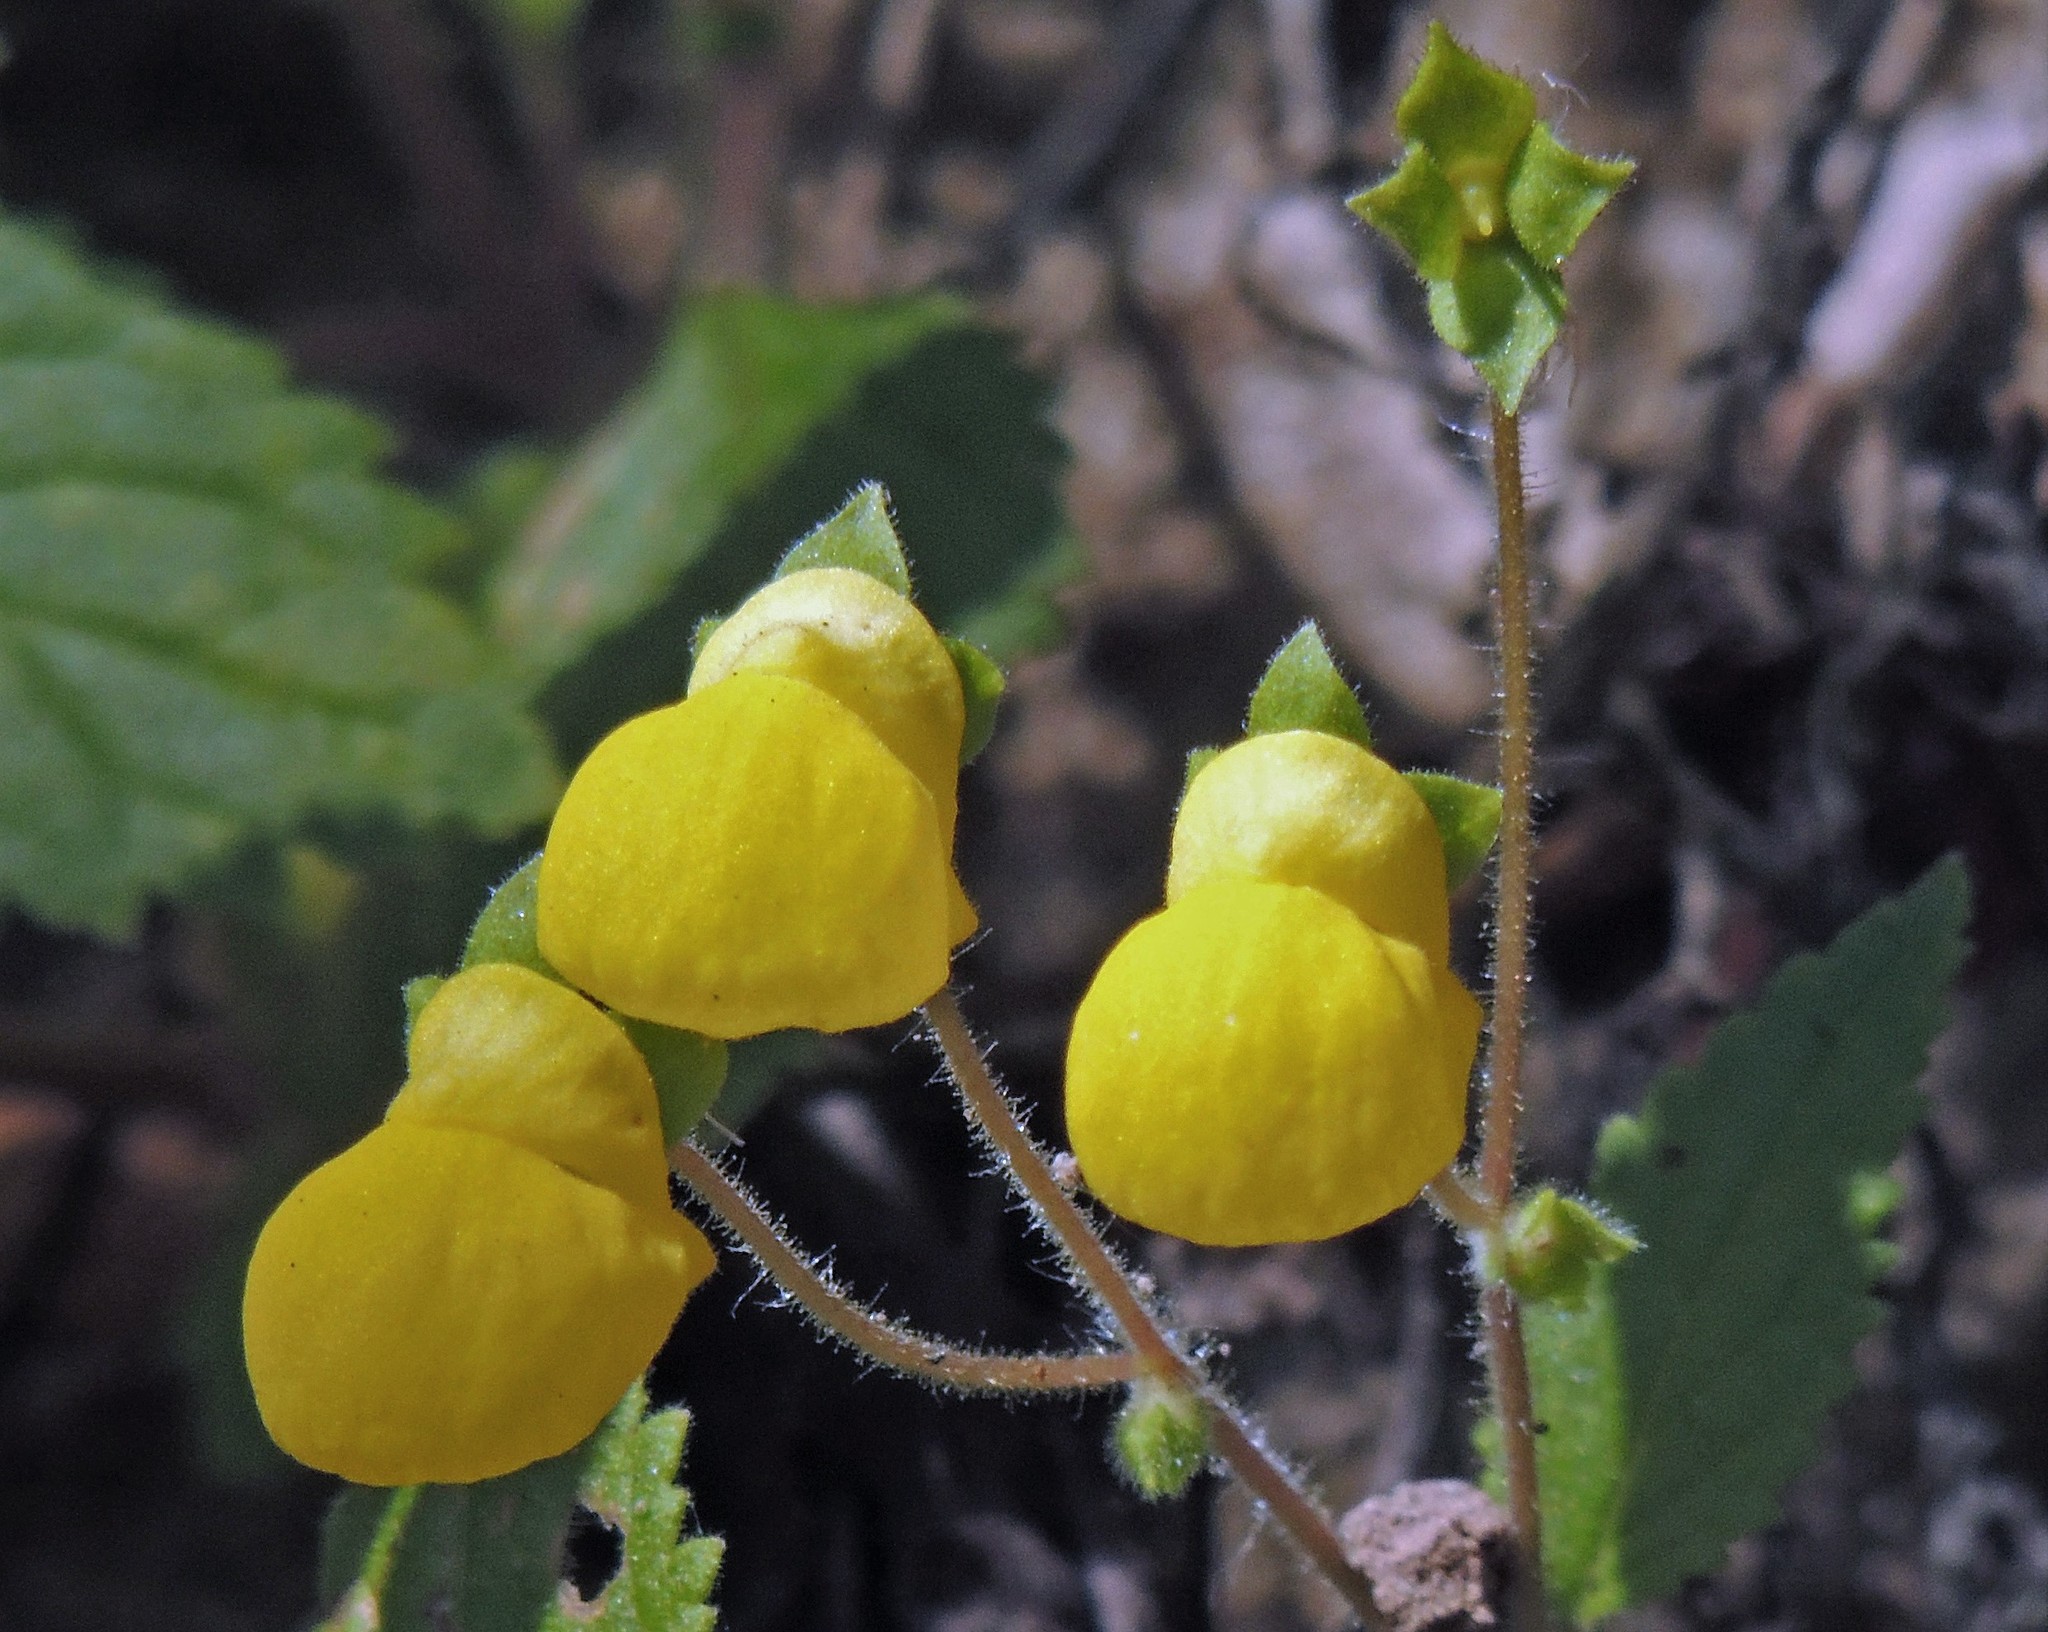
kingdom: Plantae
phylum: Tracheophyta
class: Magnoliopsida
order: Lamiales
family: Calceolariaceae
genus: Calceolaria
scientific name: Calceolaria elatior
